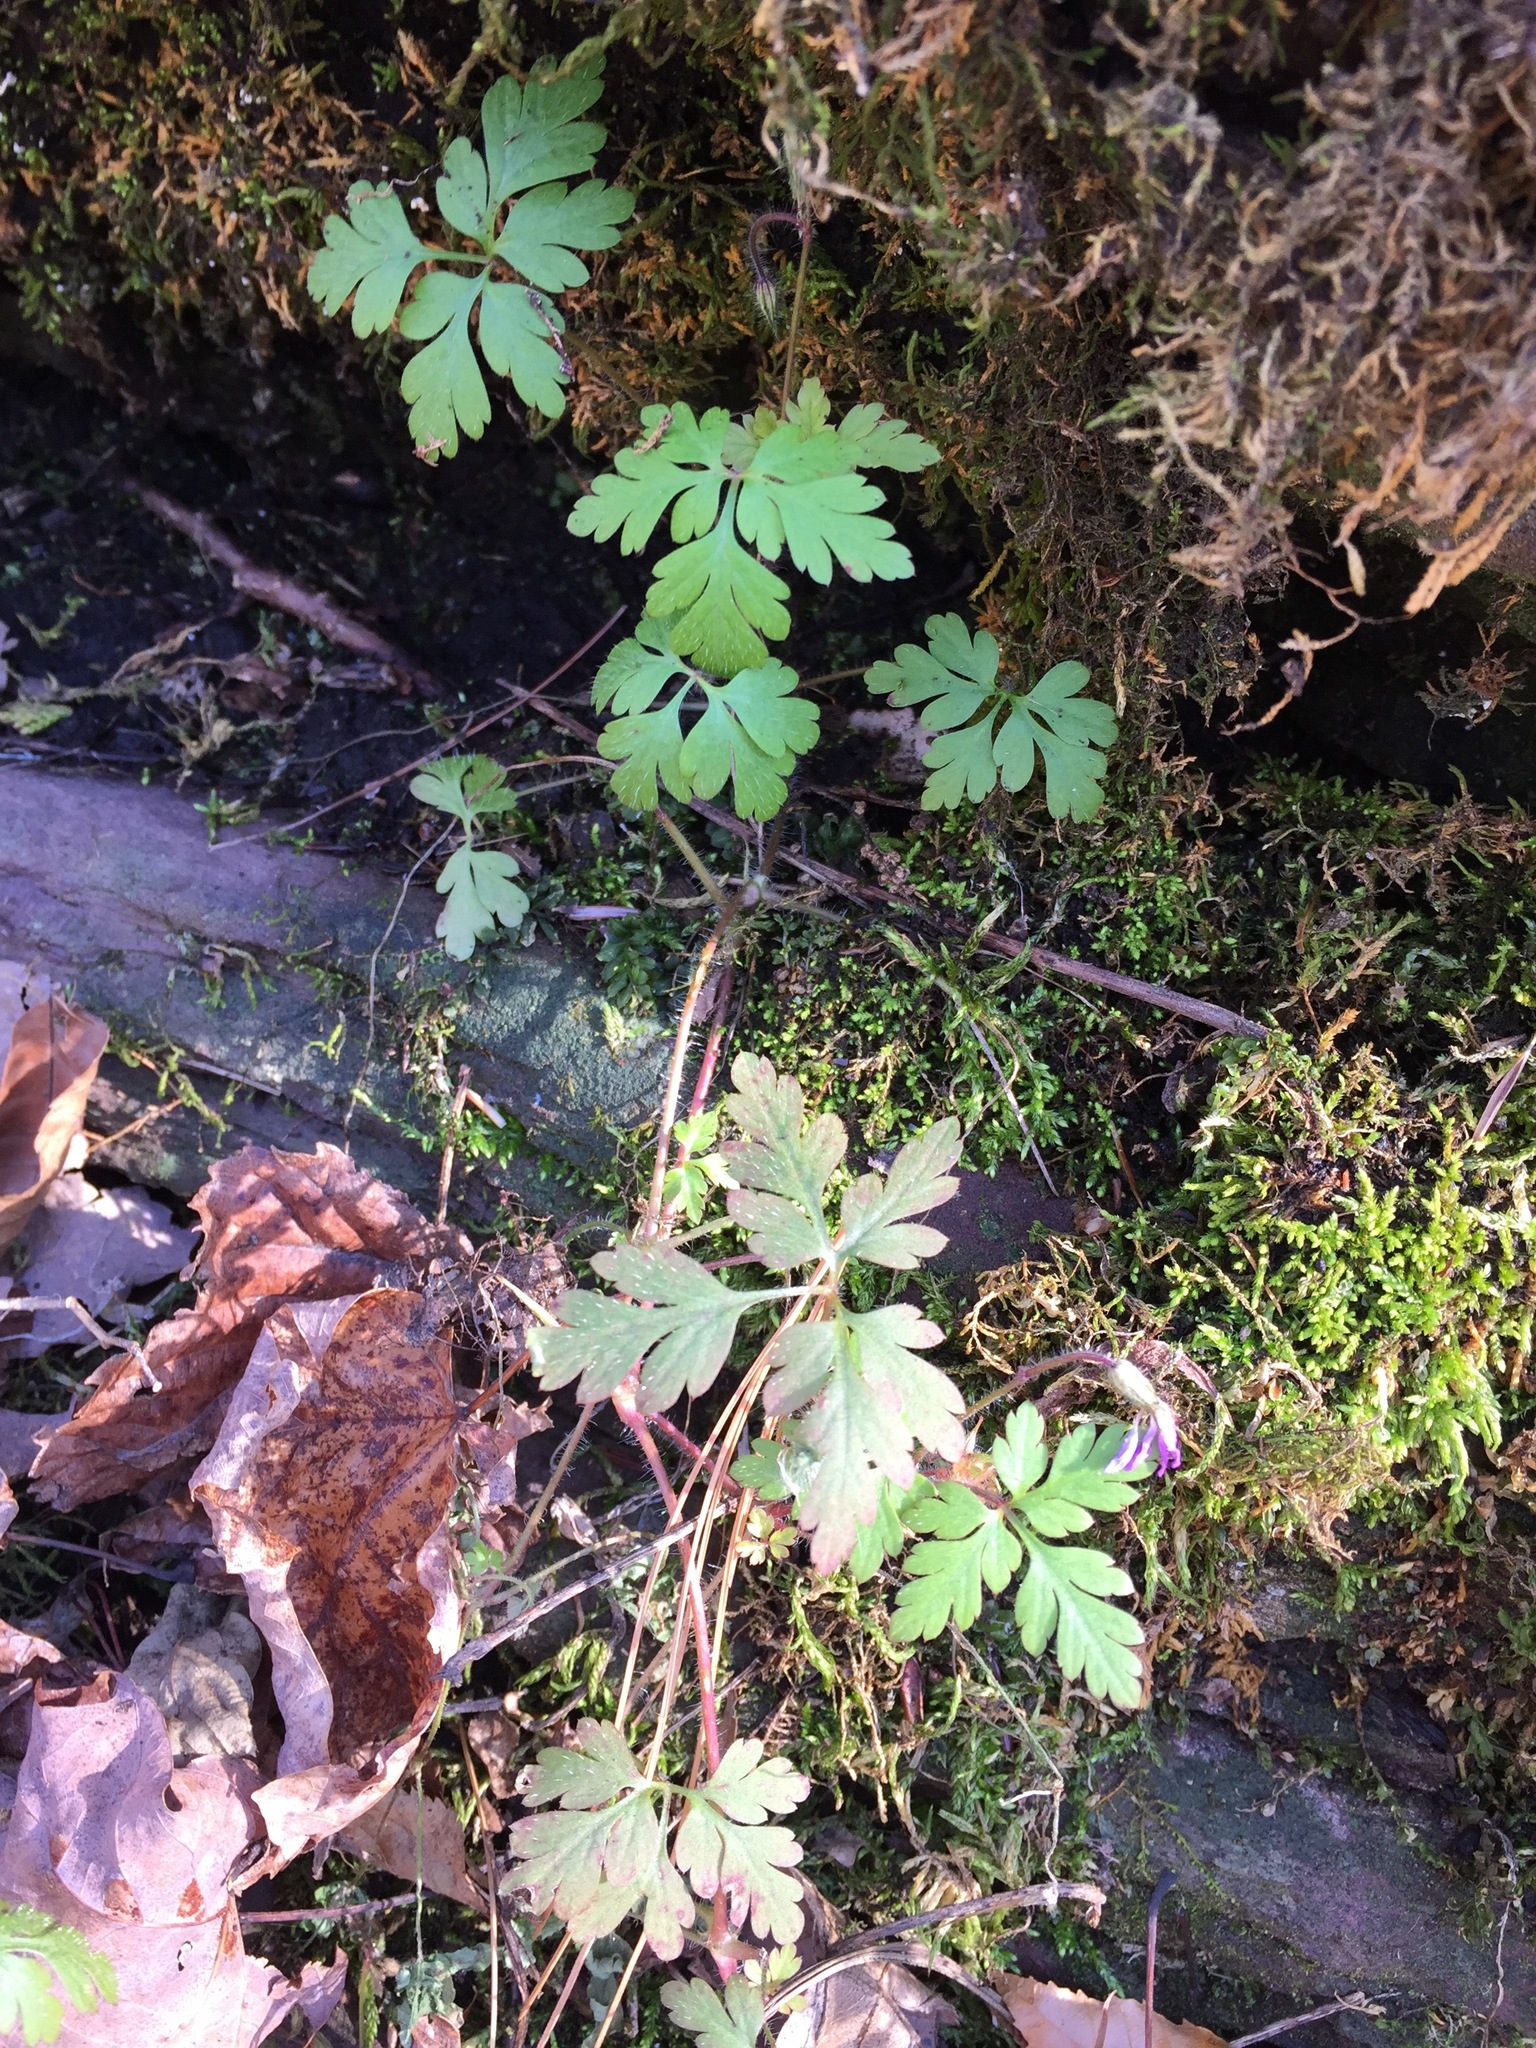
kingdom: Plantae
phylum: Tracheophyta
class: Magnoliopsida
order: Geraniales
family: Geraniaceae
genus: Geranium
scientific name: Geranium robertianum
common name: Herb-robert
